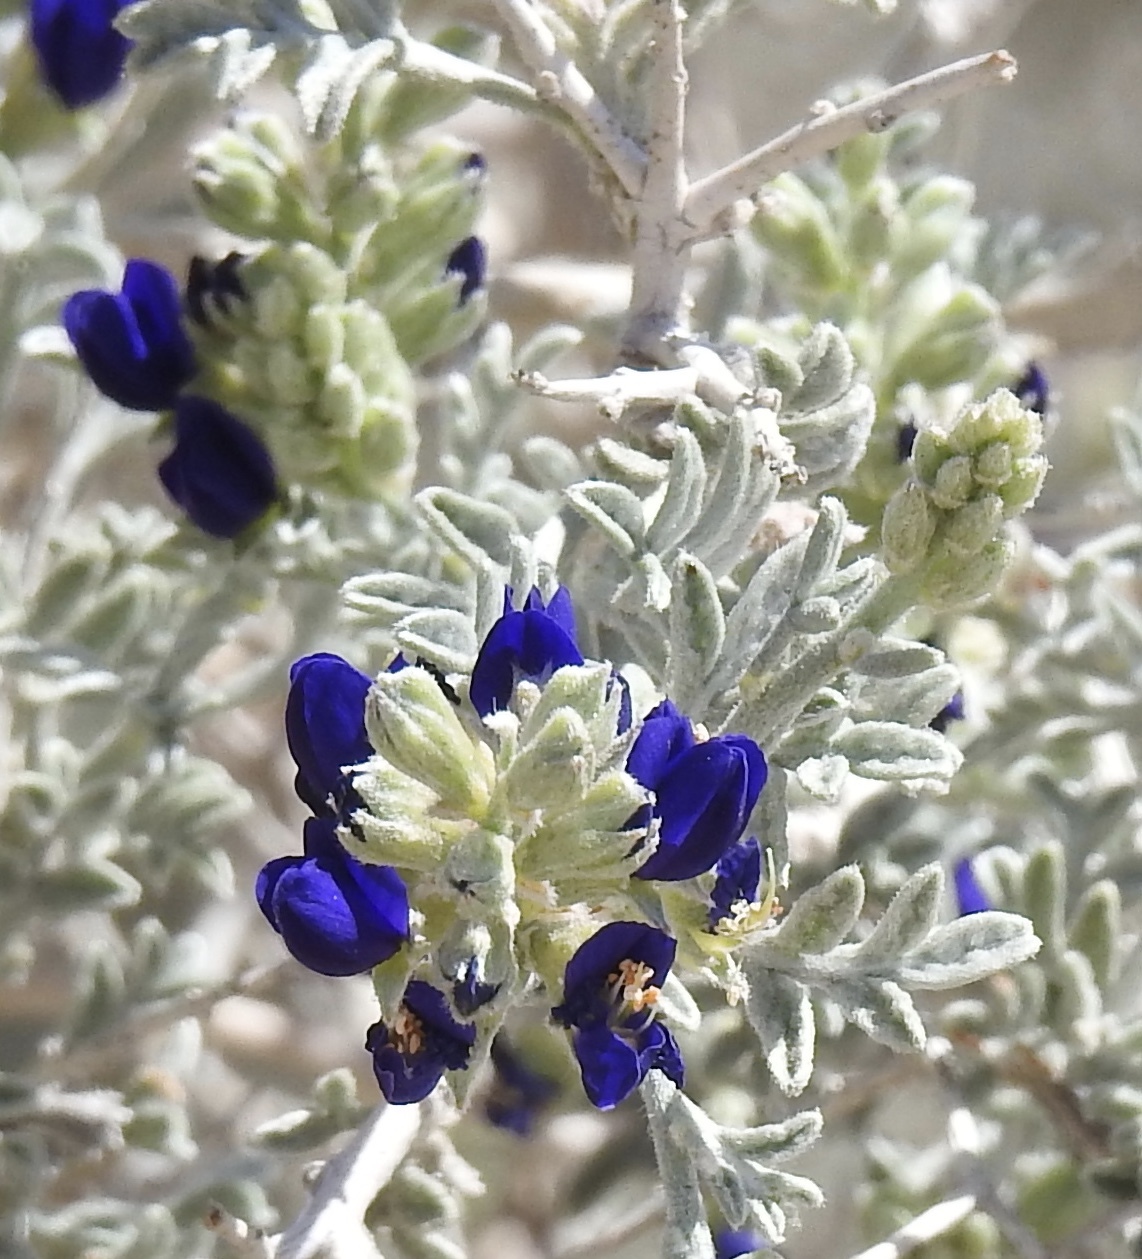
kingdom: Plantae
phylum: Tracheophyta
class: Magnoliopsida
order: Fabales
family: Fabaceae
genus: Psorothamnus
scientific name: Psorothamnus arborescens
